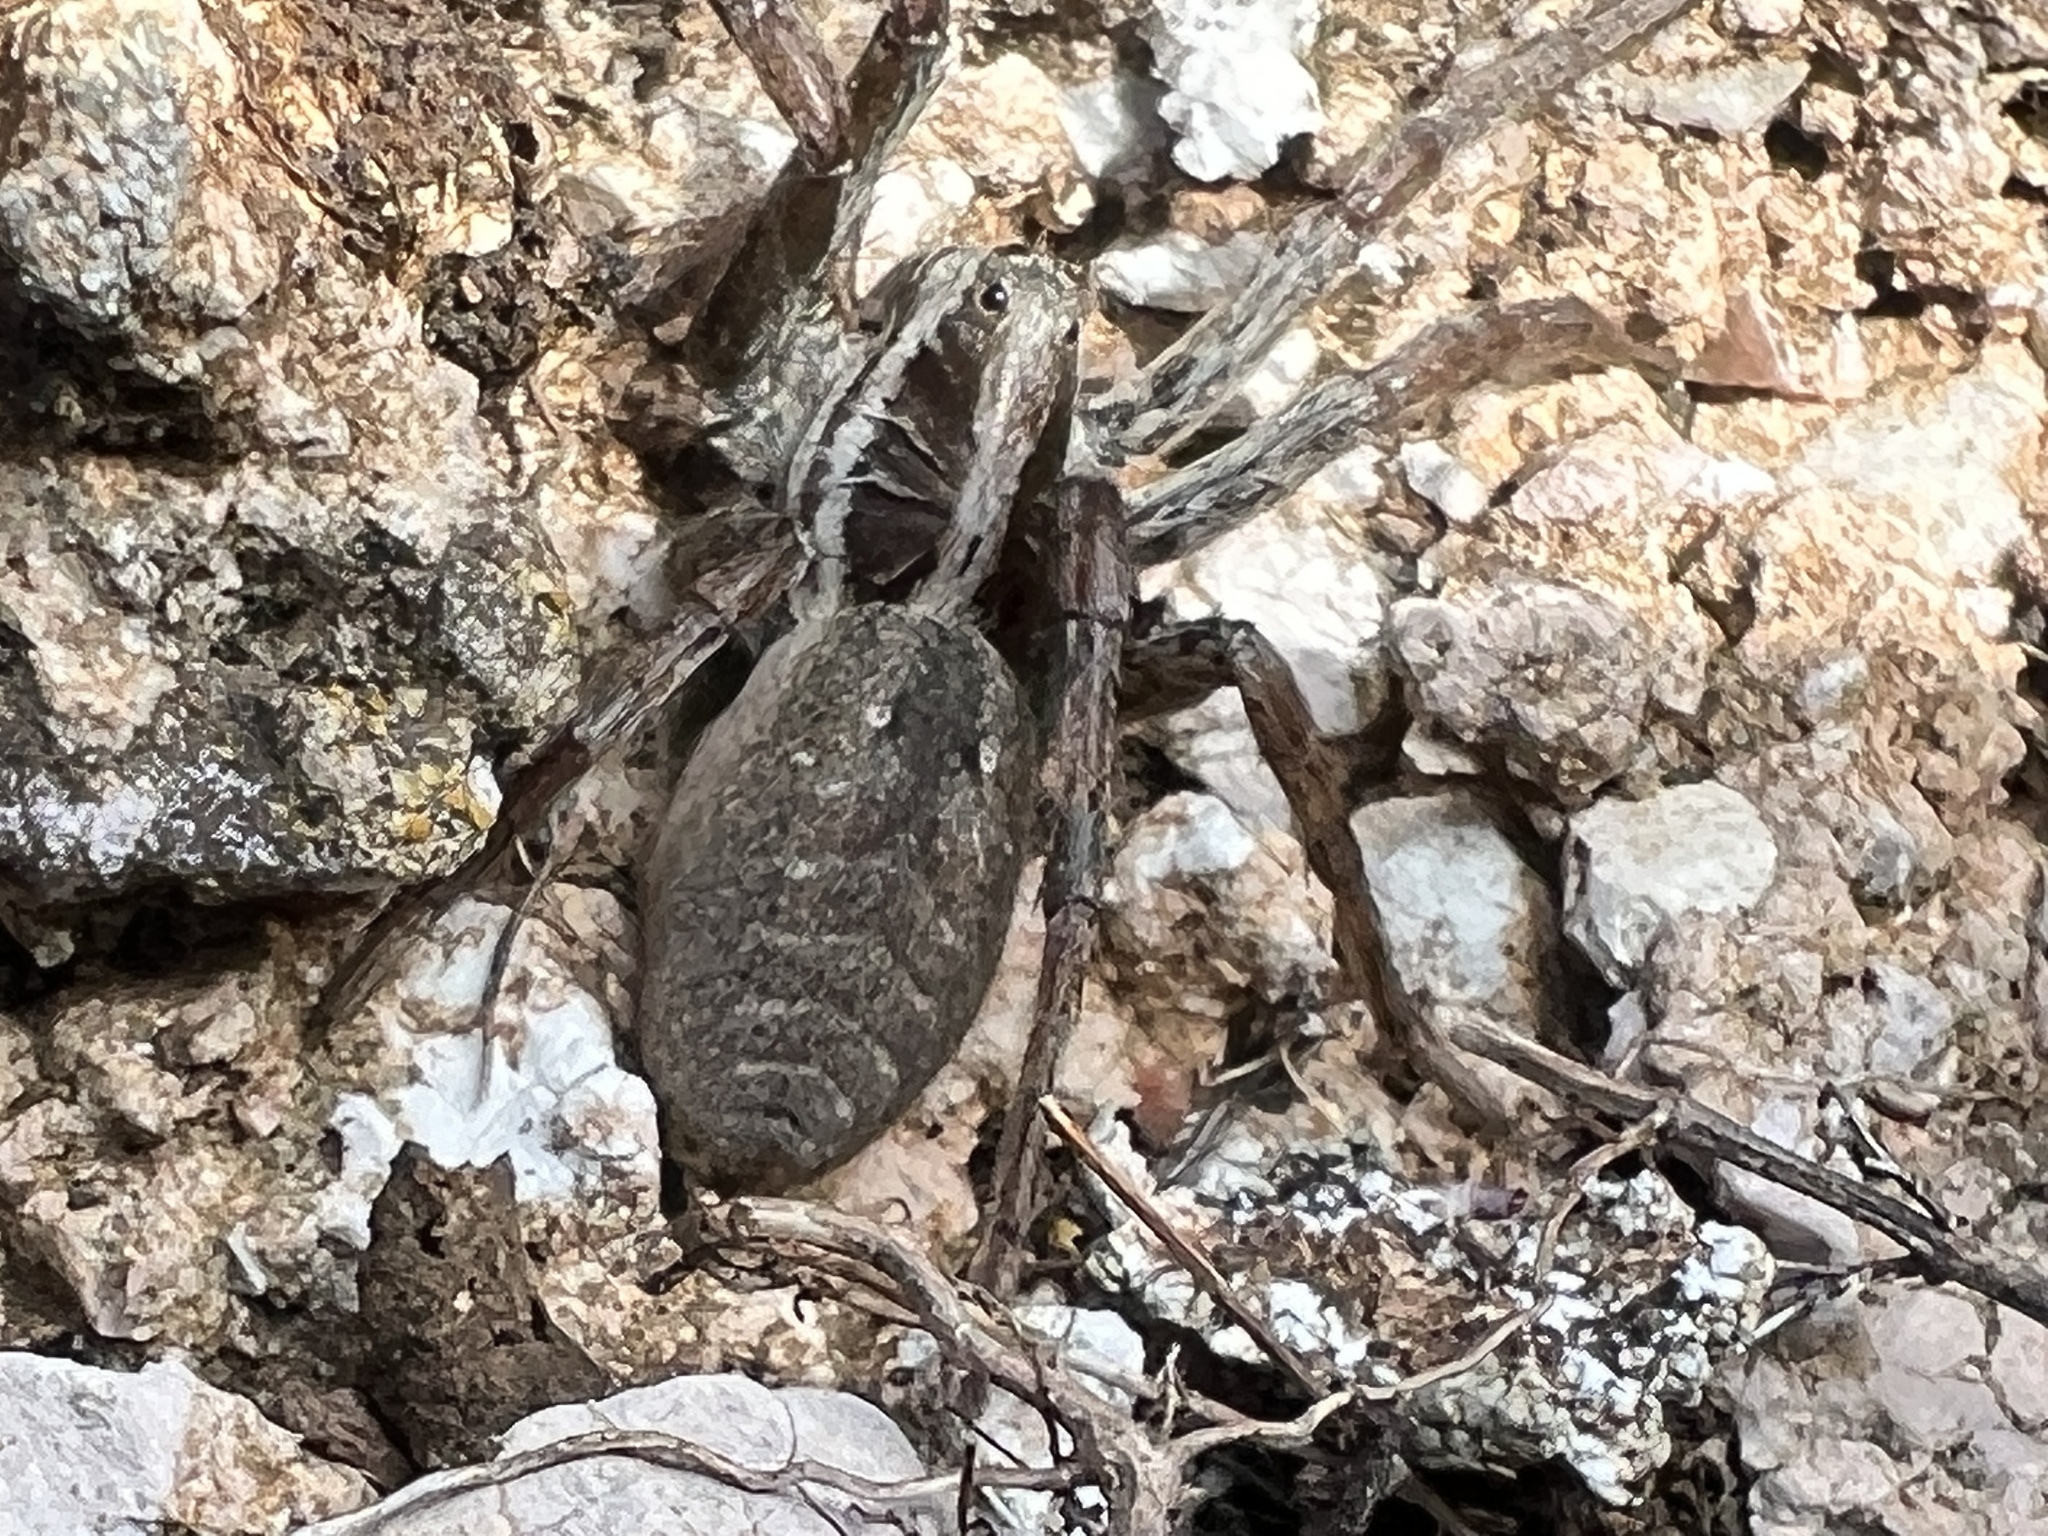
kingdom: Animalia
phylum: Arthropoda
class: Arachnida
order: Araneae
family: Lycosidae
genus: Hogna
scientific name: Hogna radiata
